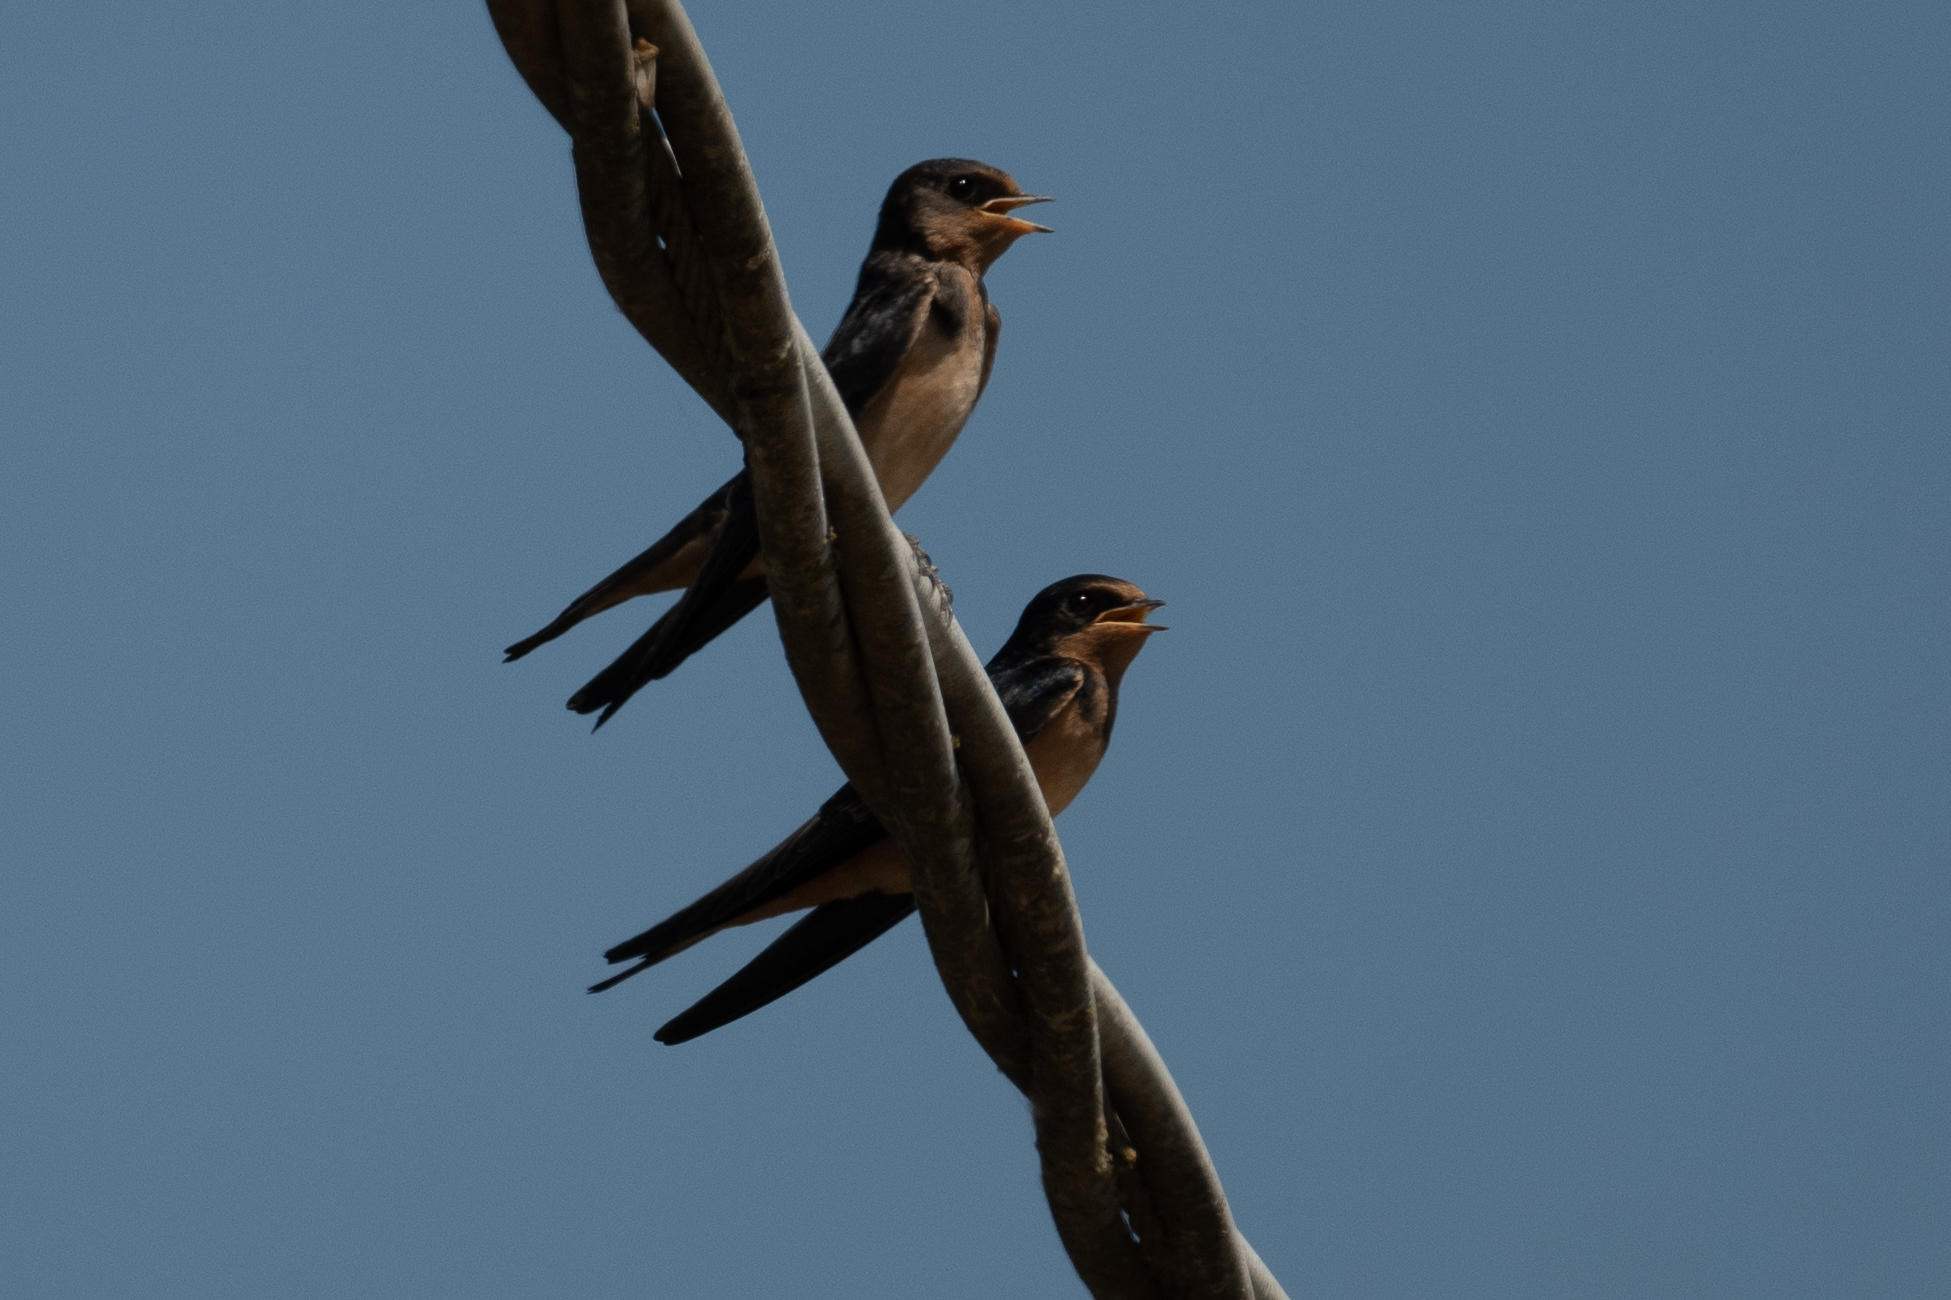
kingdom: Animalia
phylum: Chordata
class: Aves
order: Passeriformes
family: Hirundinidae
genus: Hirundo
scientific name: Hirundo rustica
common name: Barn swallow
